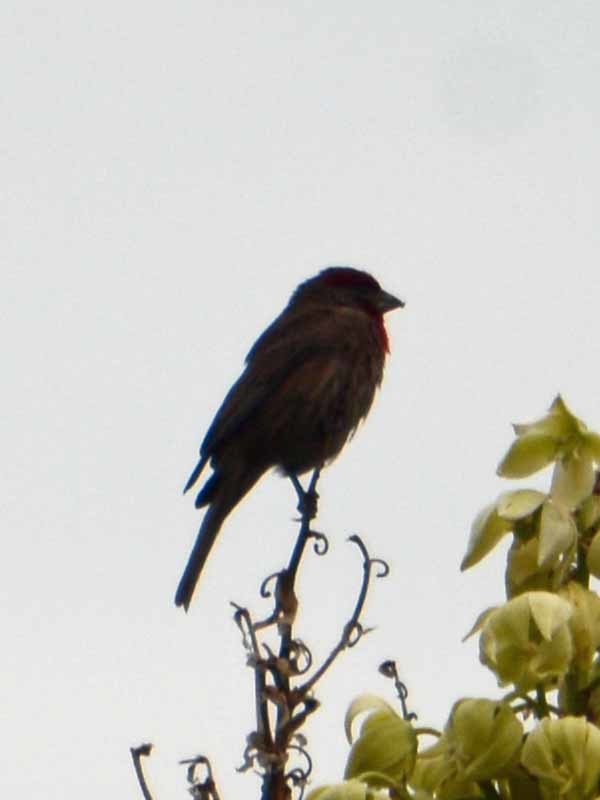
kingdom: Animalia
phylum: Chordata
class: Aves
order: Passeriformes
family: Fringillidae
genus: Haemorhous
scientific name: Haemorhous mexicanus
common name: House finch
